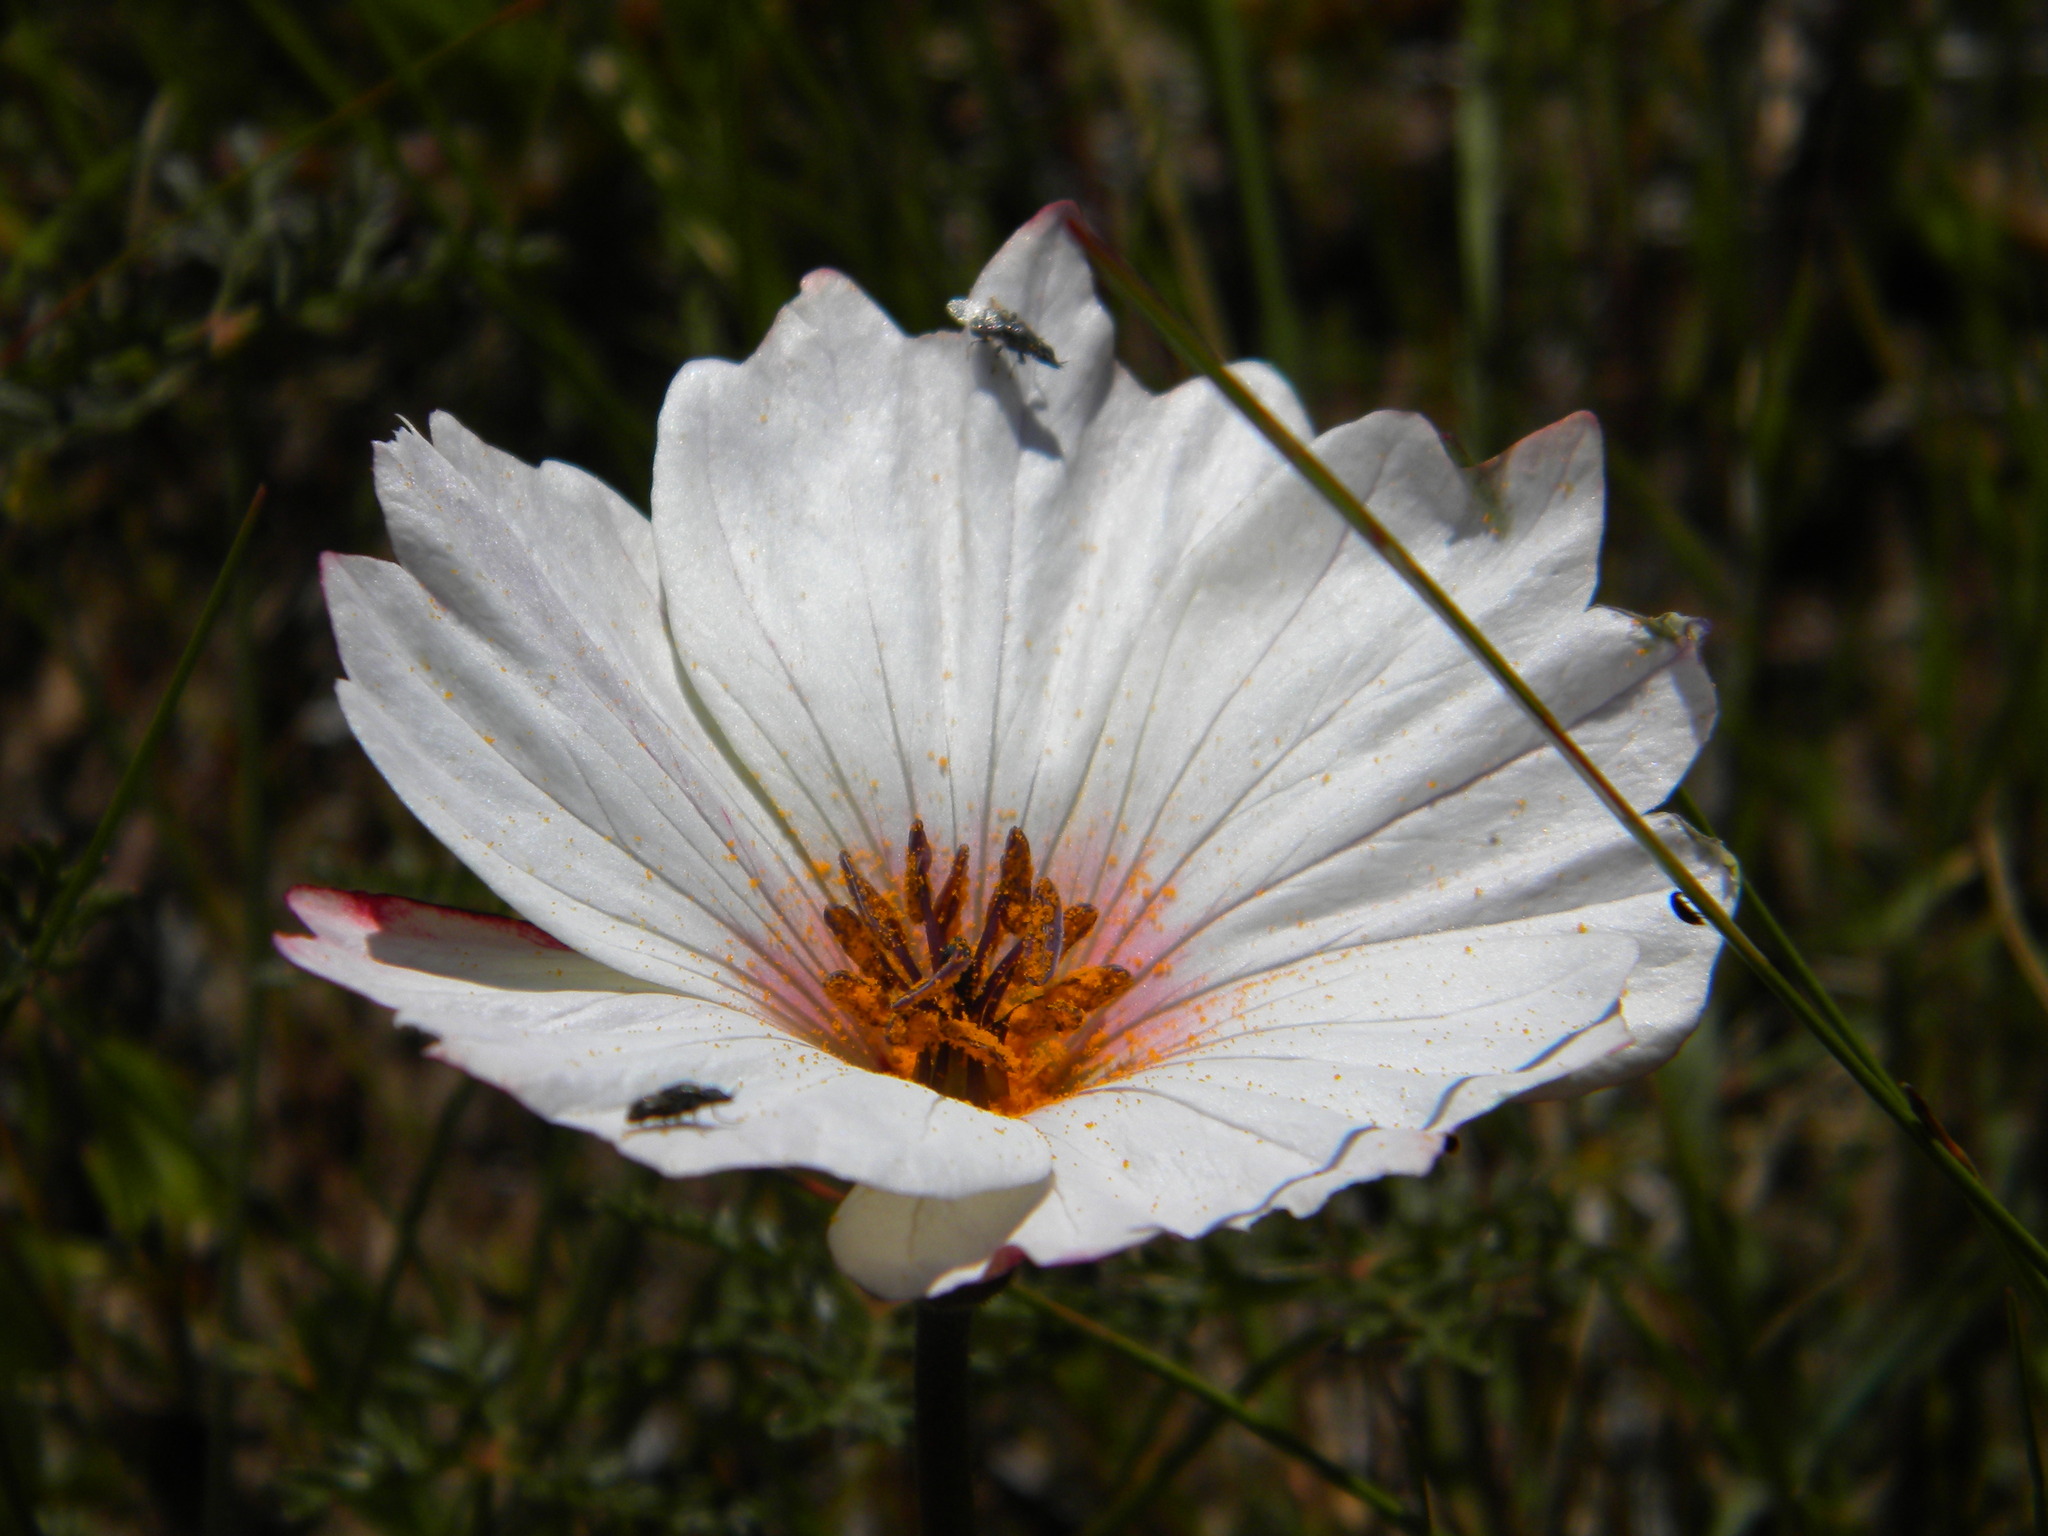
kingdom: Plantae
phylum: Tracheophyta
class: Magnoliopsida
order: Geraniales
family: Geraniaceae
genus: Monsonia
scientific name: Monsonia speciosa
